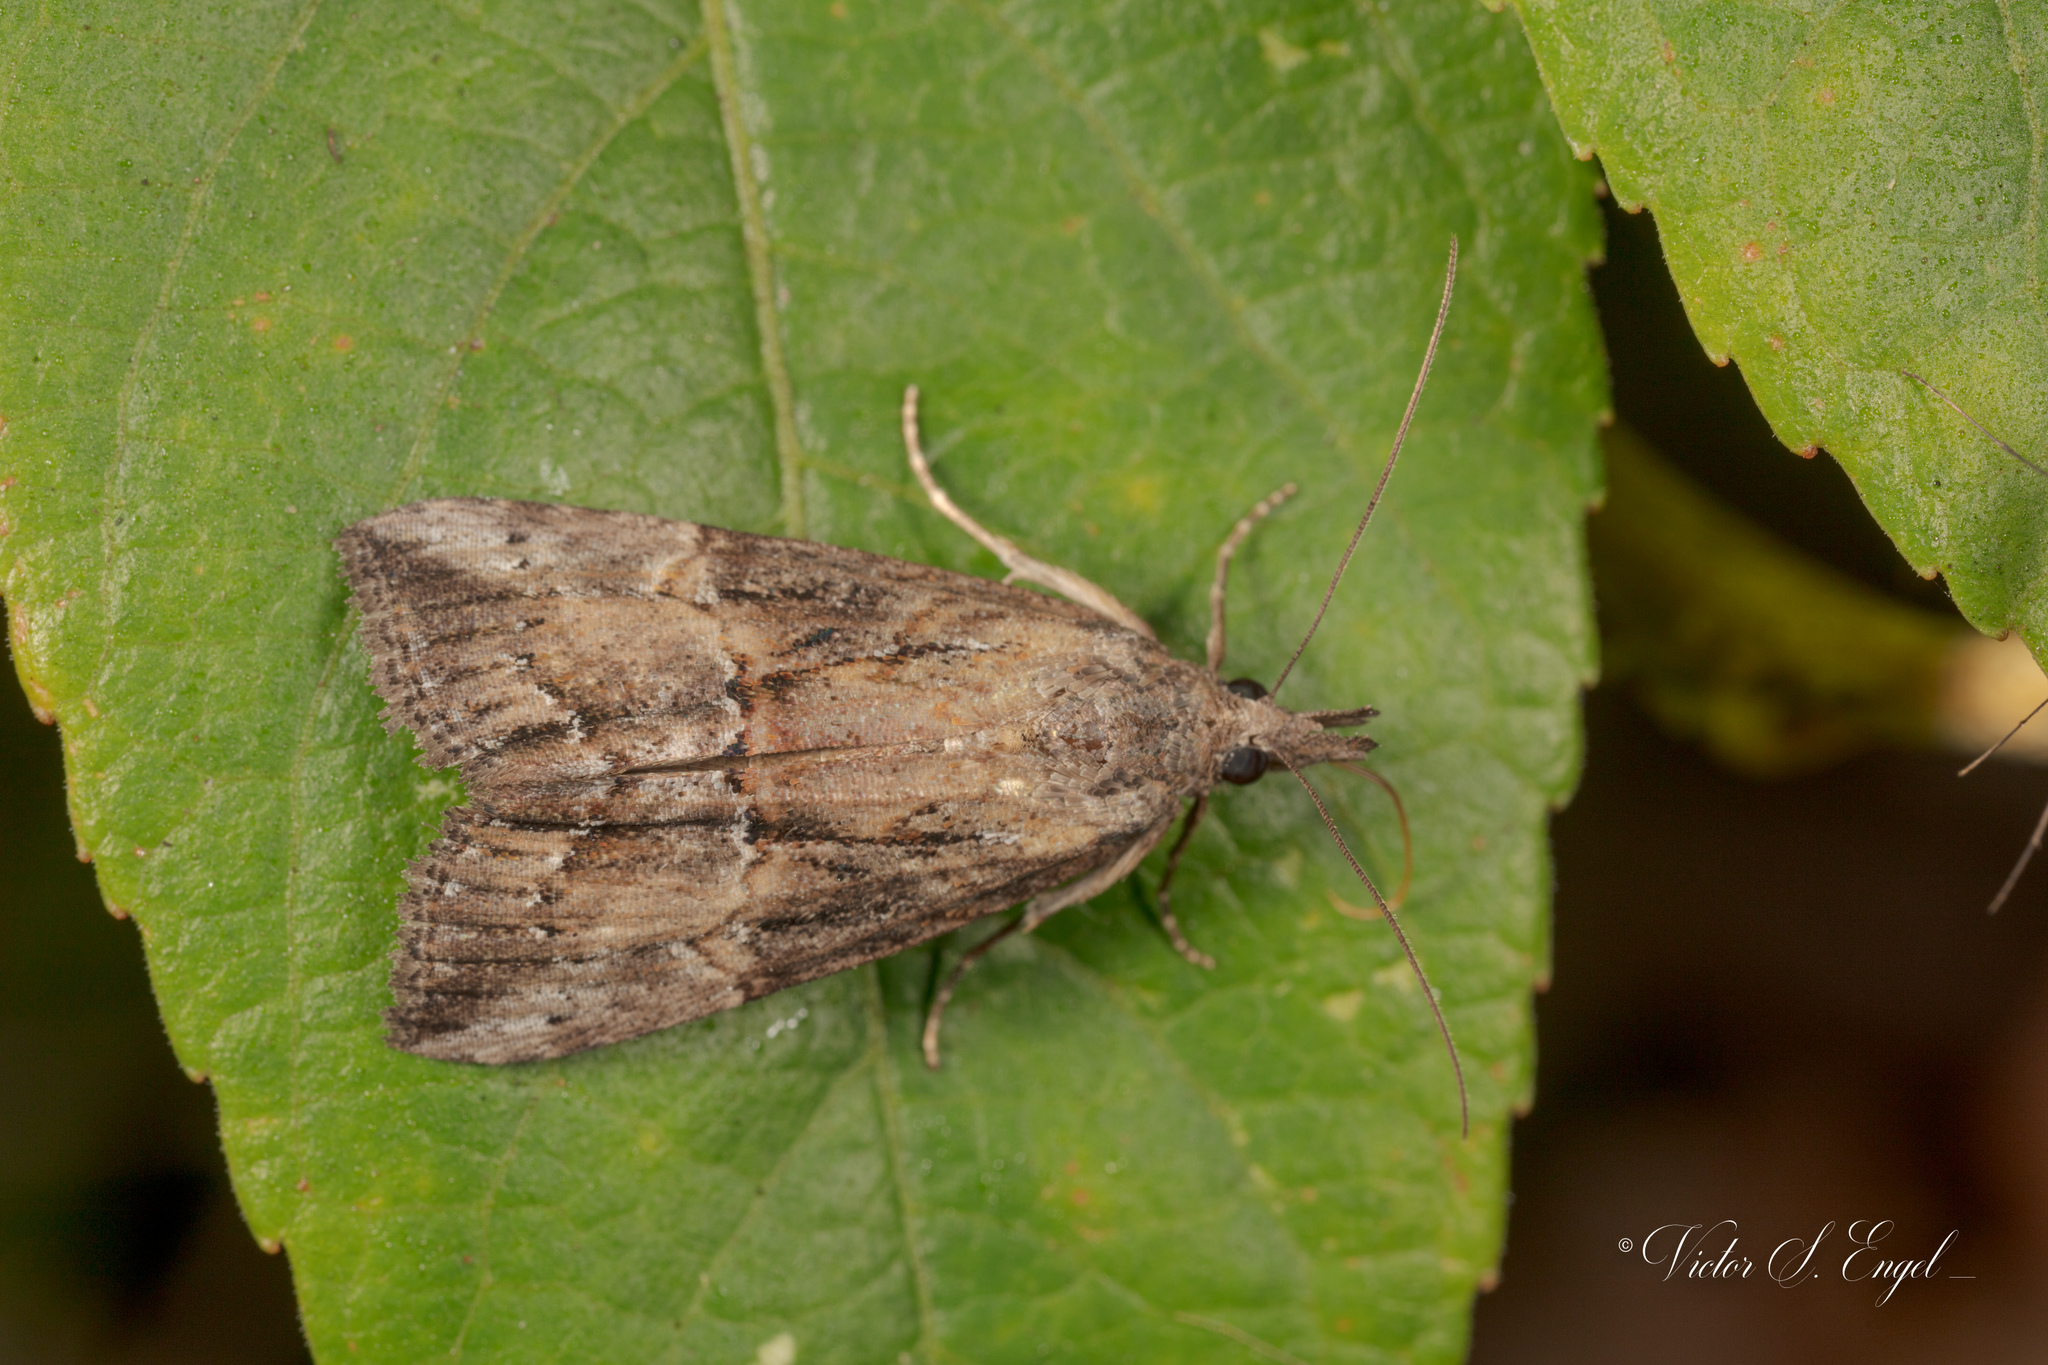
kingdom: Animalia
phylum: Arthropoda
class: Insecta
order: Lepidoptera
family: Erebidae
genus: Hypena
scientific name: Hypena scabra
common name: Green cloverworm
